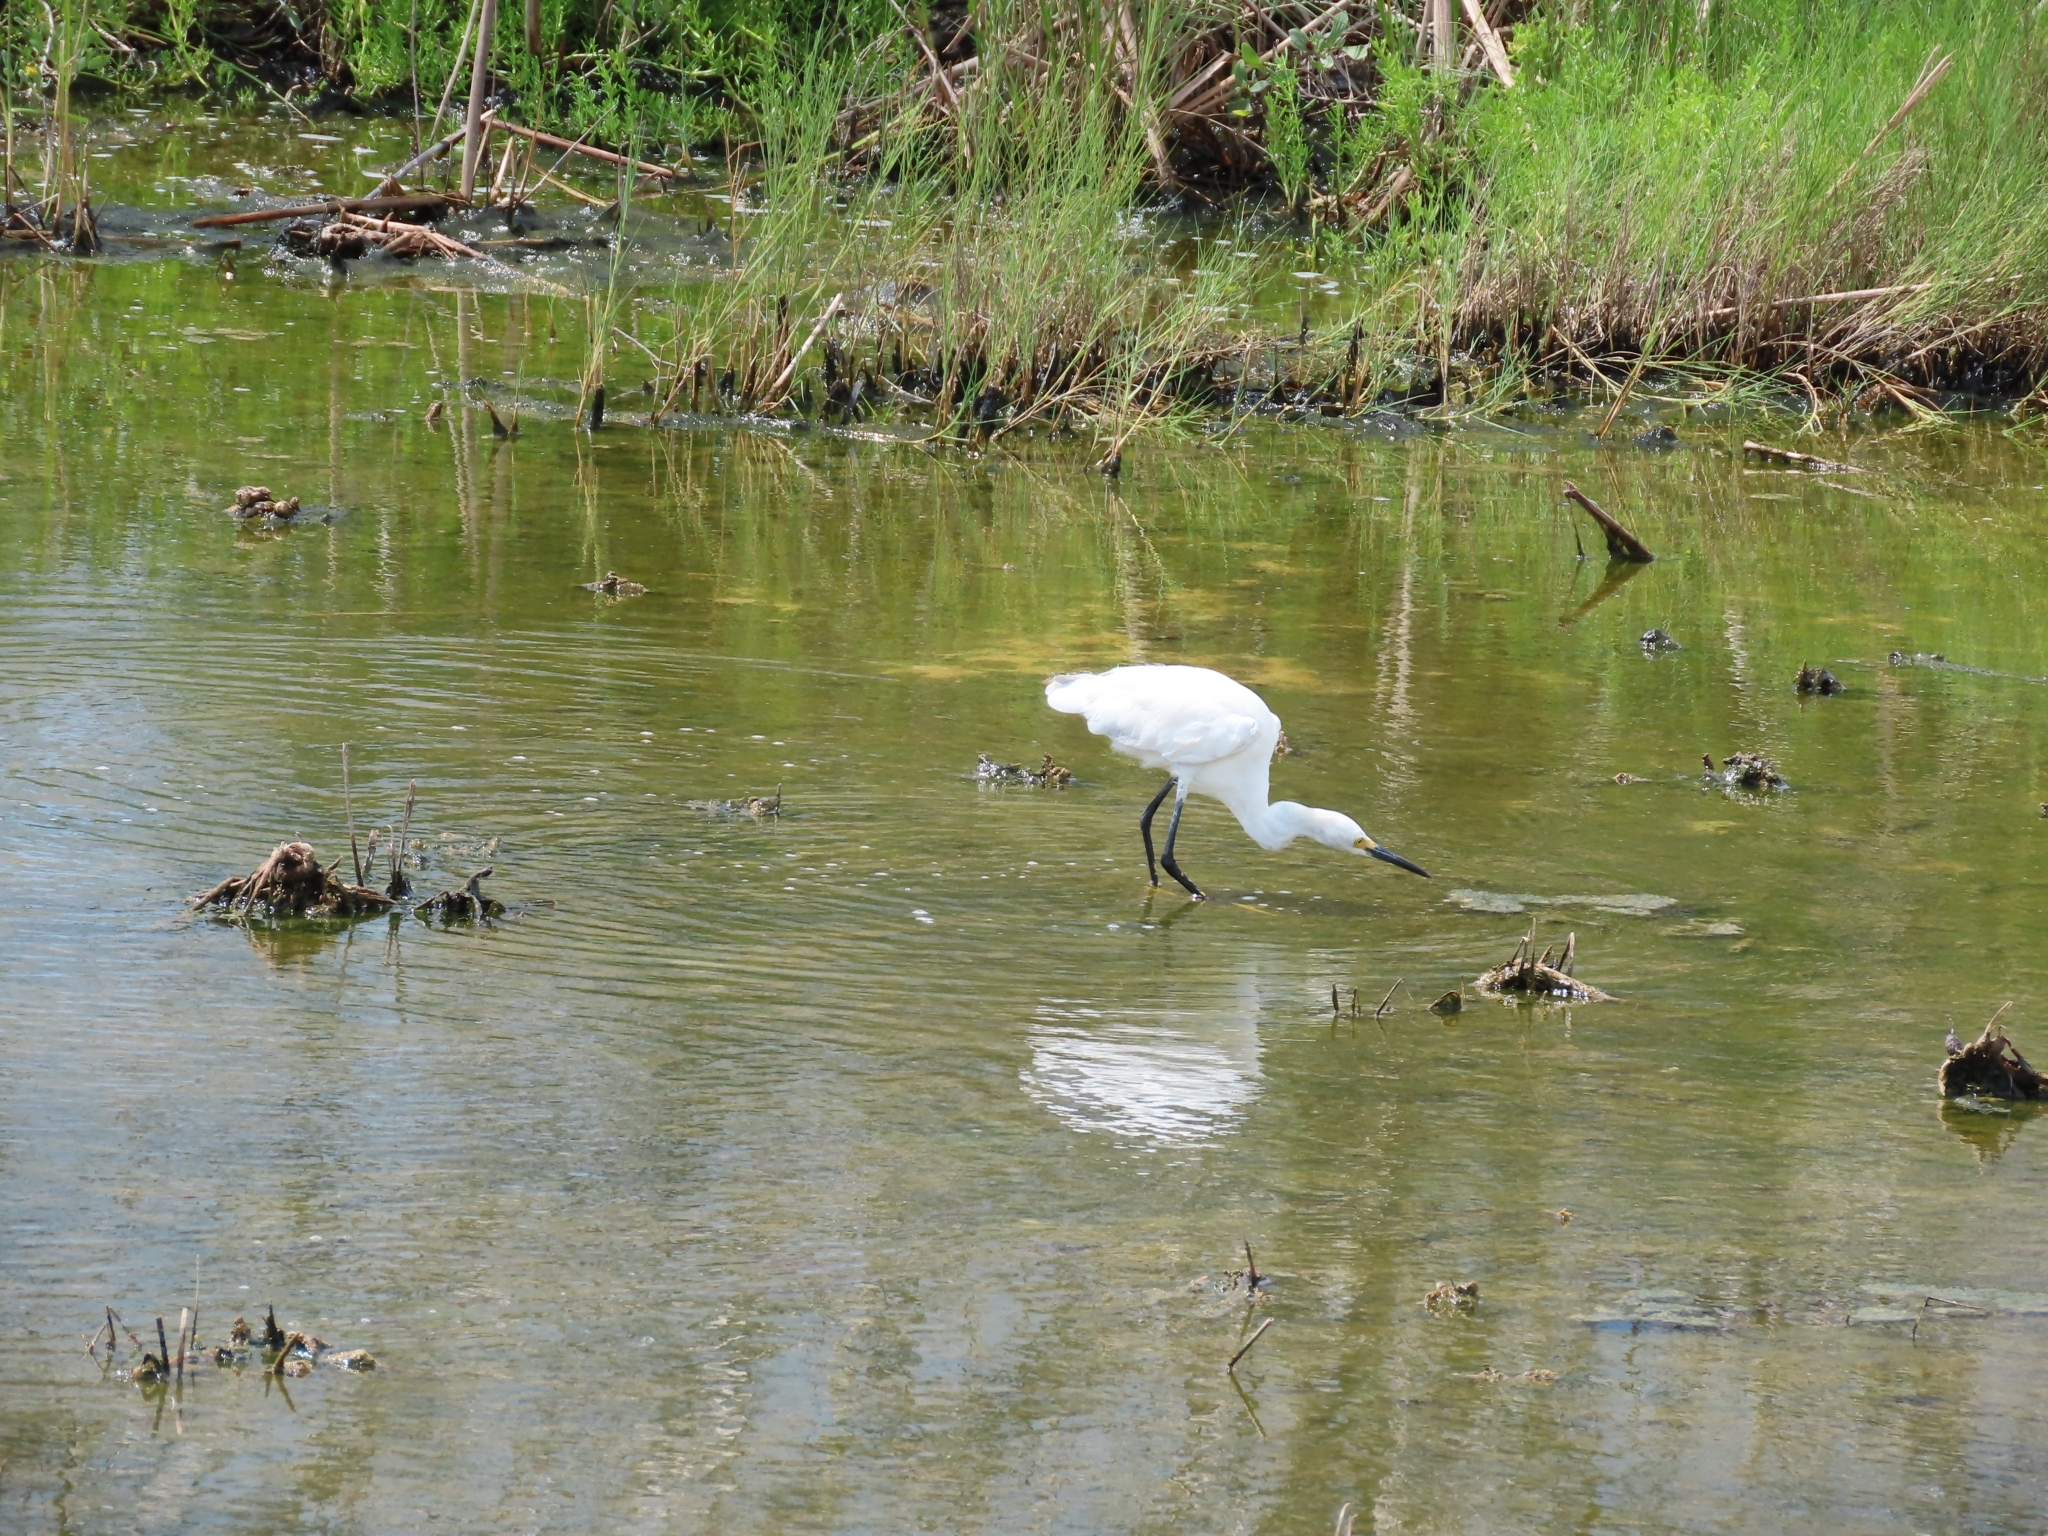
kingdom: Animalia
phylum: Chordata
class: Aves
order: Pelecaniformes
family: Ardeidae
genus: Egretta
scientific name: Egretta thula
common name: Snowy egret
